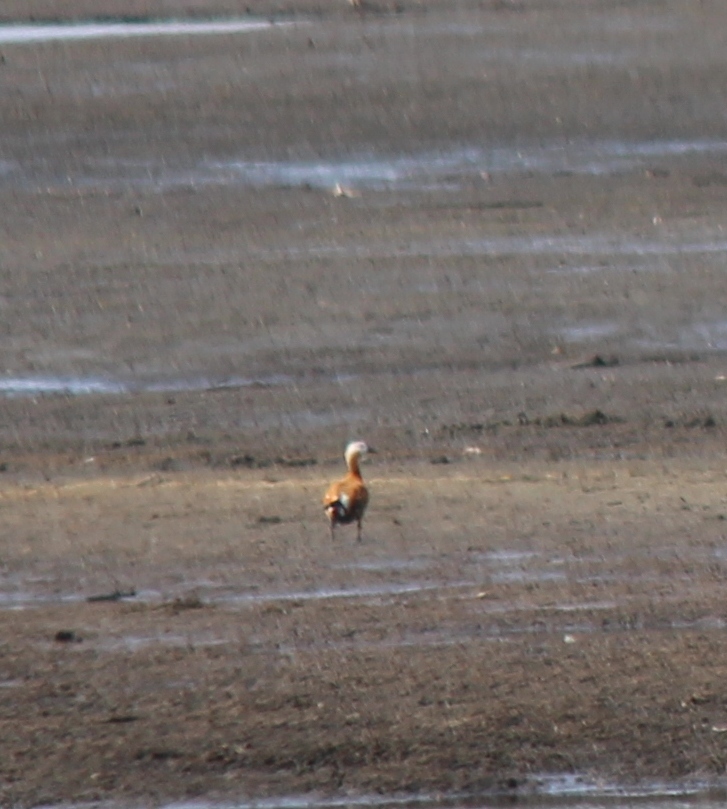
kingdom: Animalia
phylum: Chordata
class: Aves
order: Anseriformes
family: Anatidae
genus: Tadorna
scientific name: Tadorna ferruginea
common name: Ruddy shelduck
